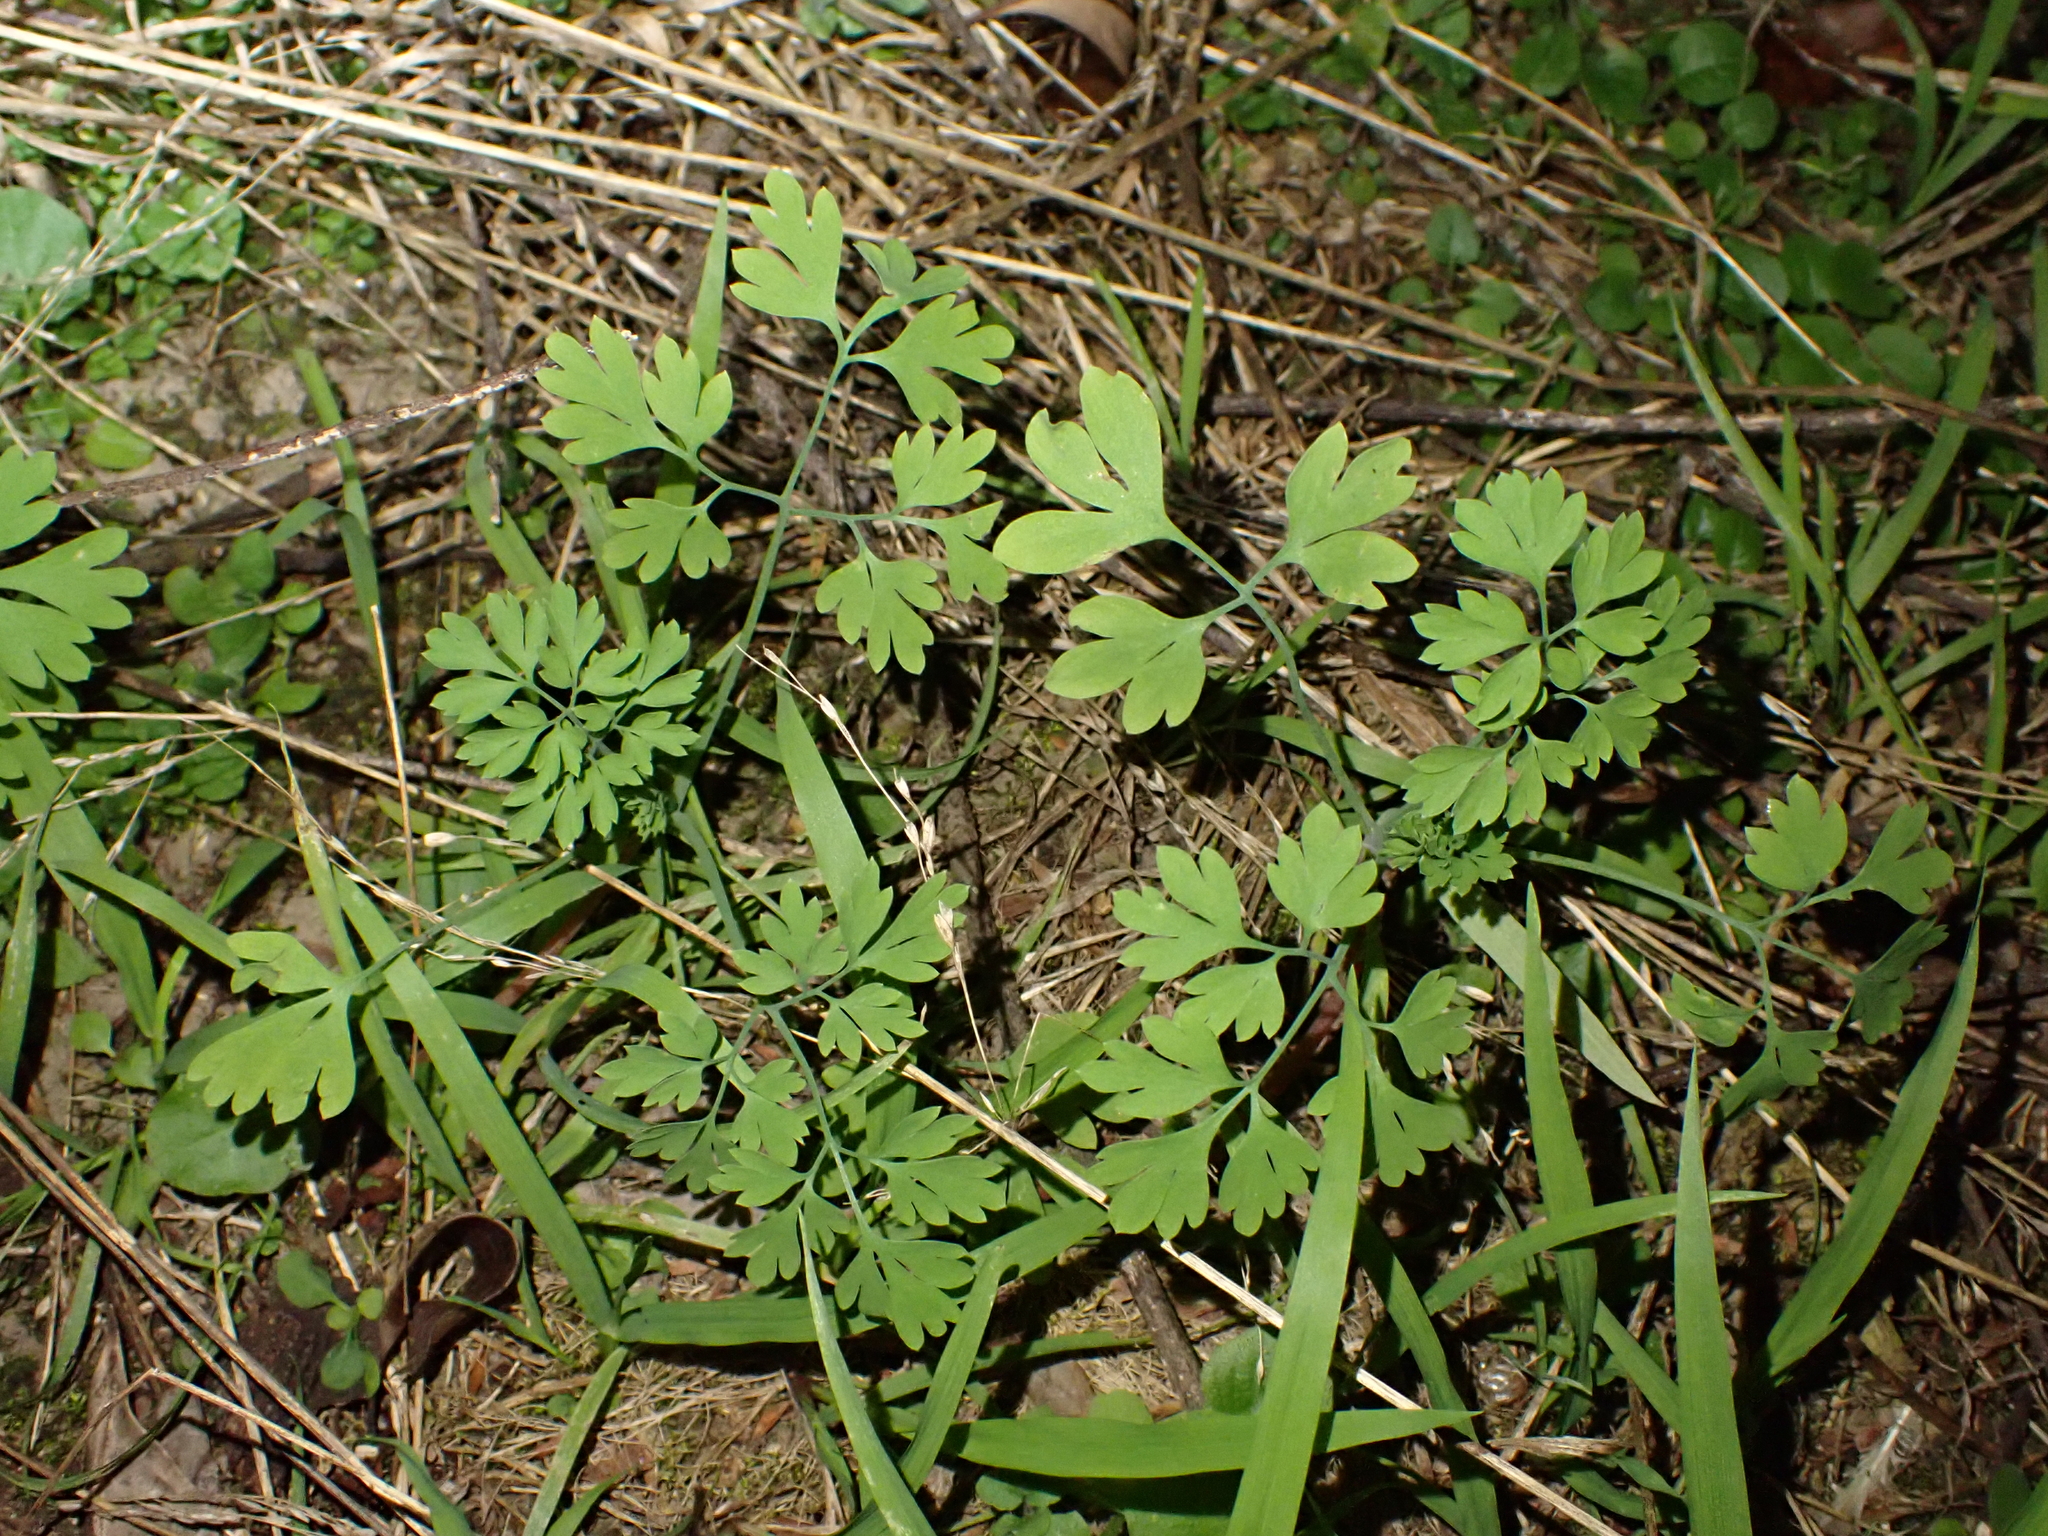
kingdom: Plantae
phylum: Tracheophyta
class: Magnoliopsida
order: Ranunculales
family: Papaveraceae
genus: Fumaria
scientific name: Fumaria
